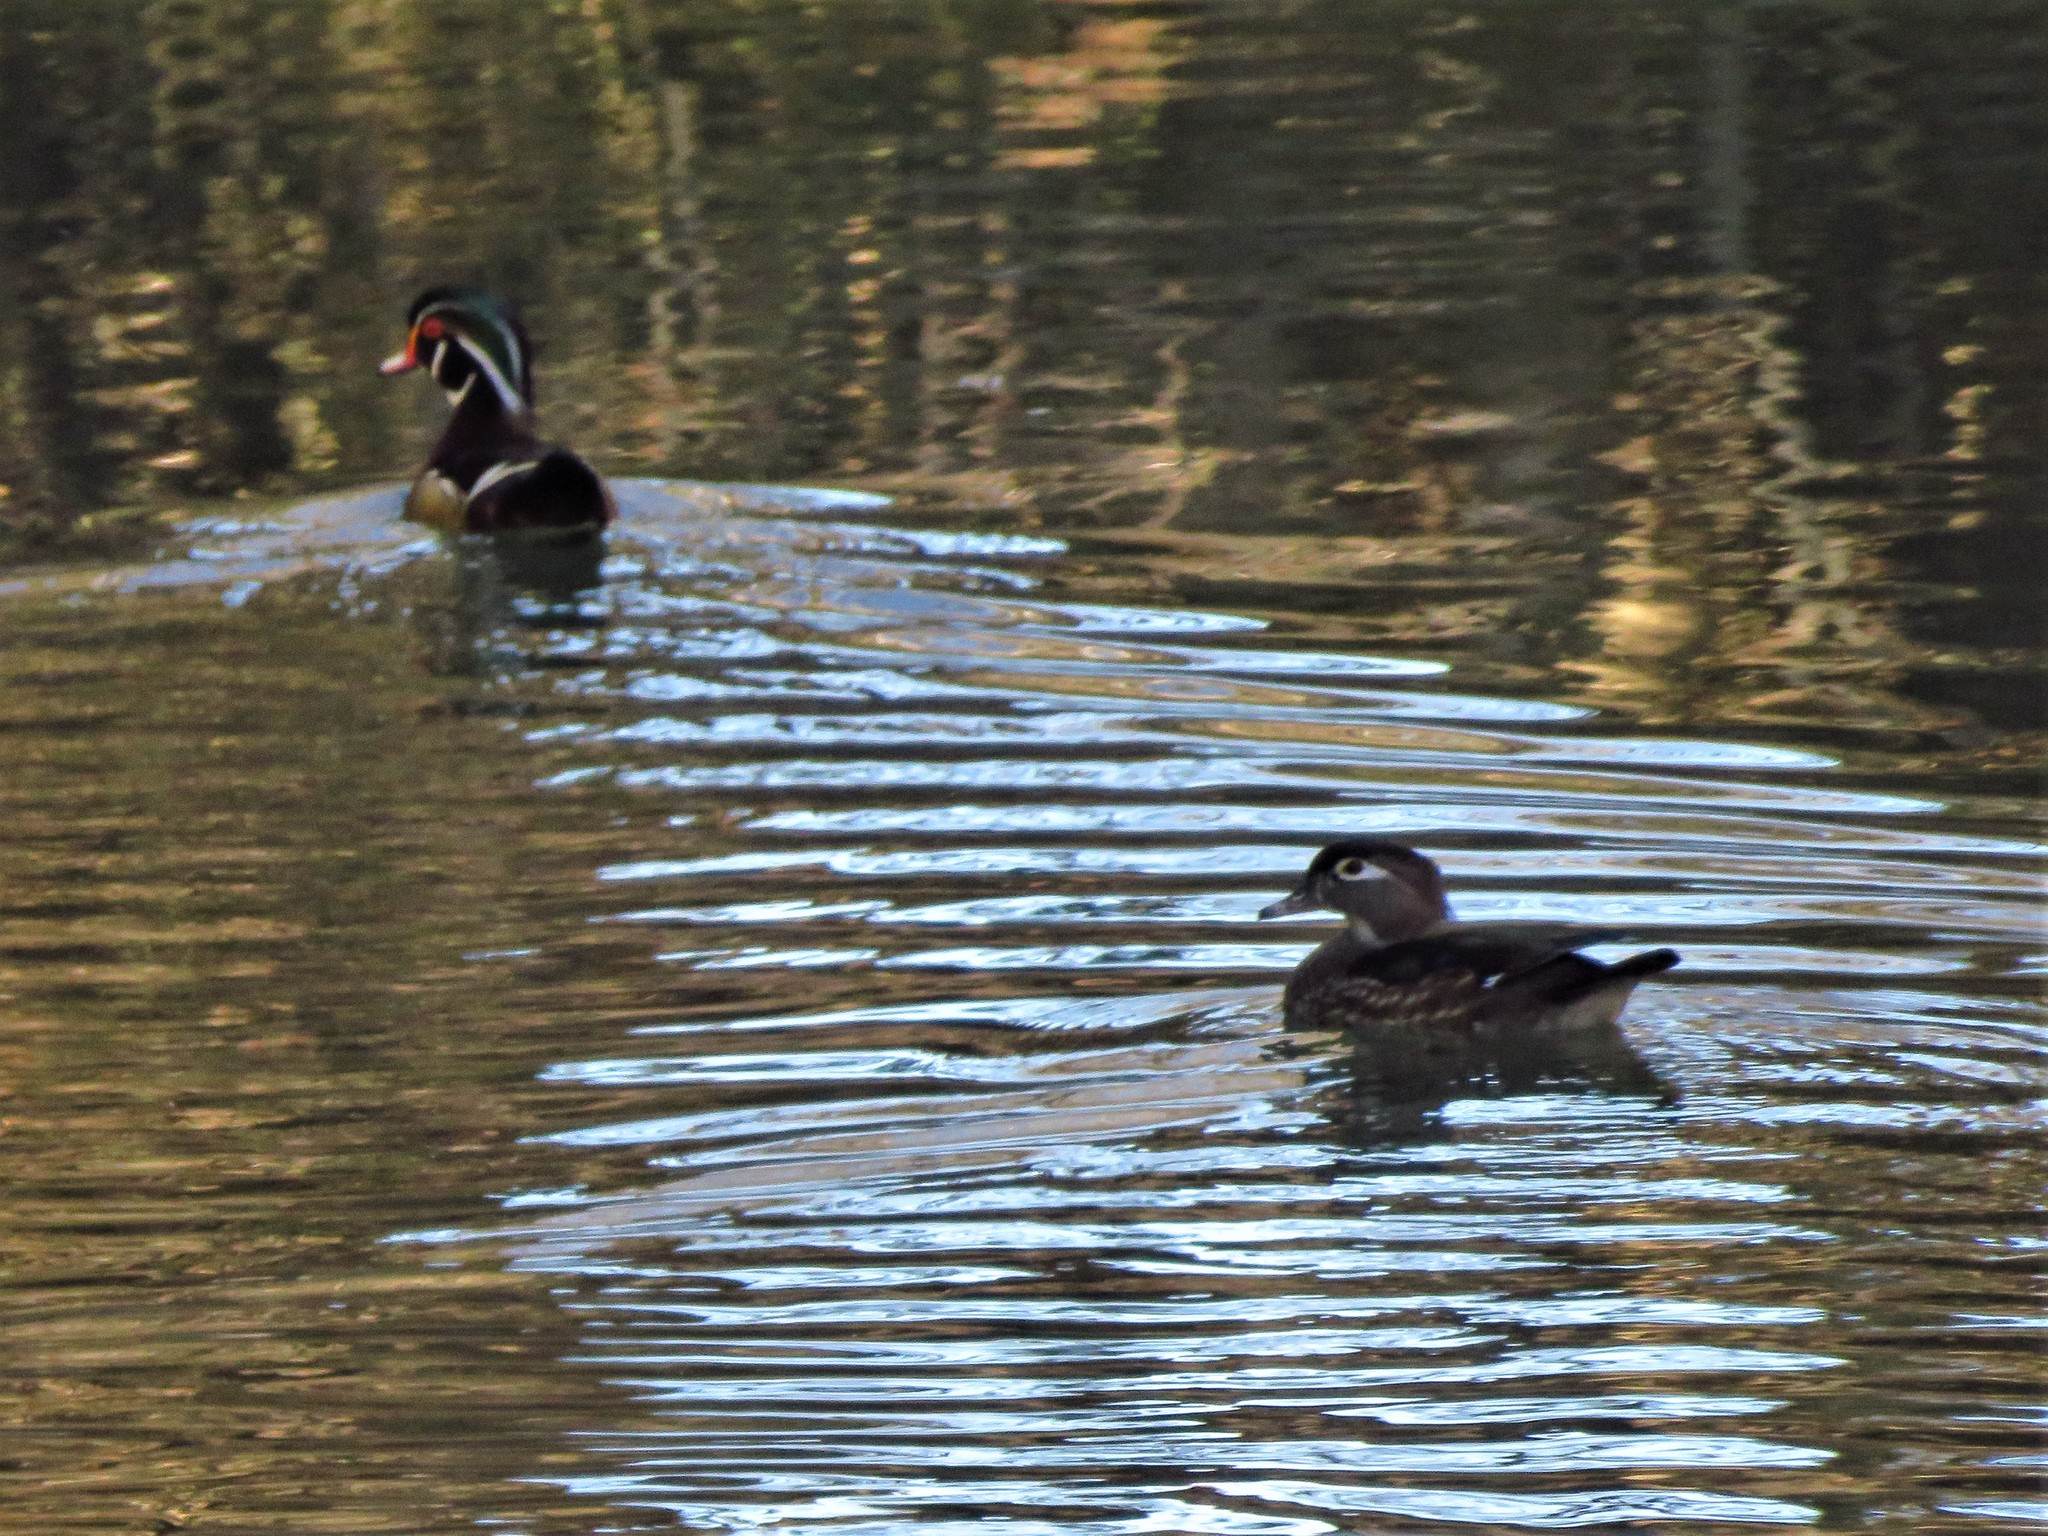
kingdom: Animalia
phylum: Chordata
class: Aves
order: Anseriformes
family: Anatidae
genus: Aix
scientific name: Aix sponsa
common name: Wood duck
